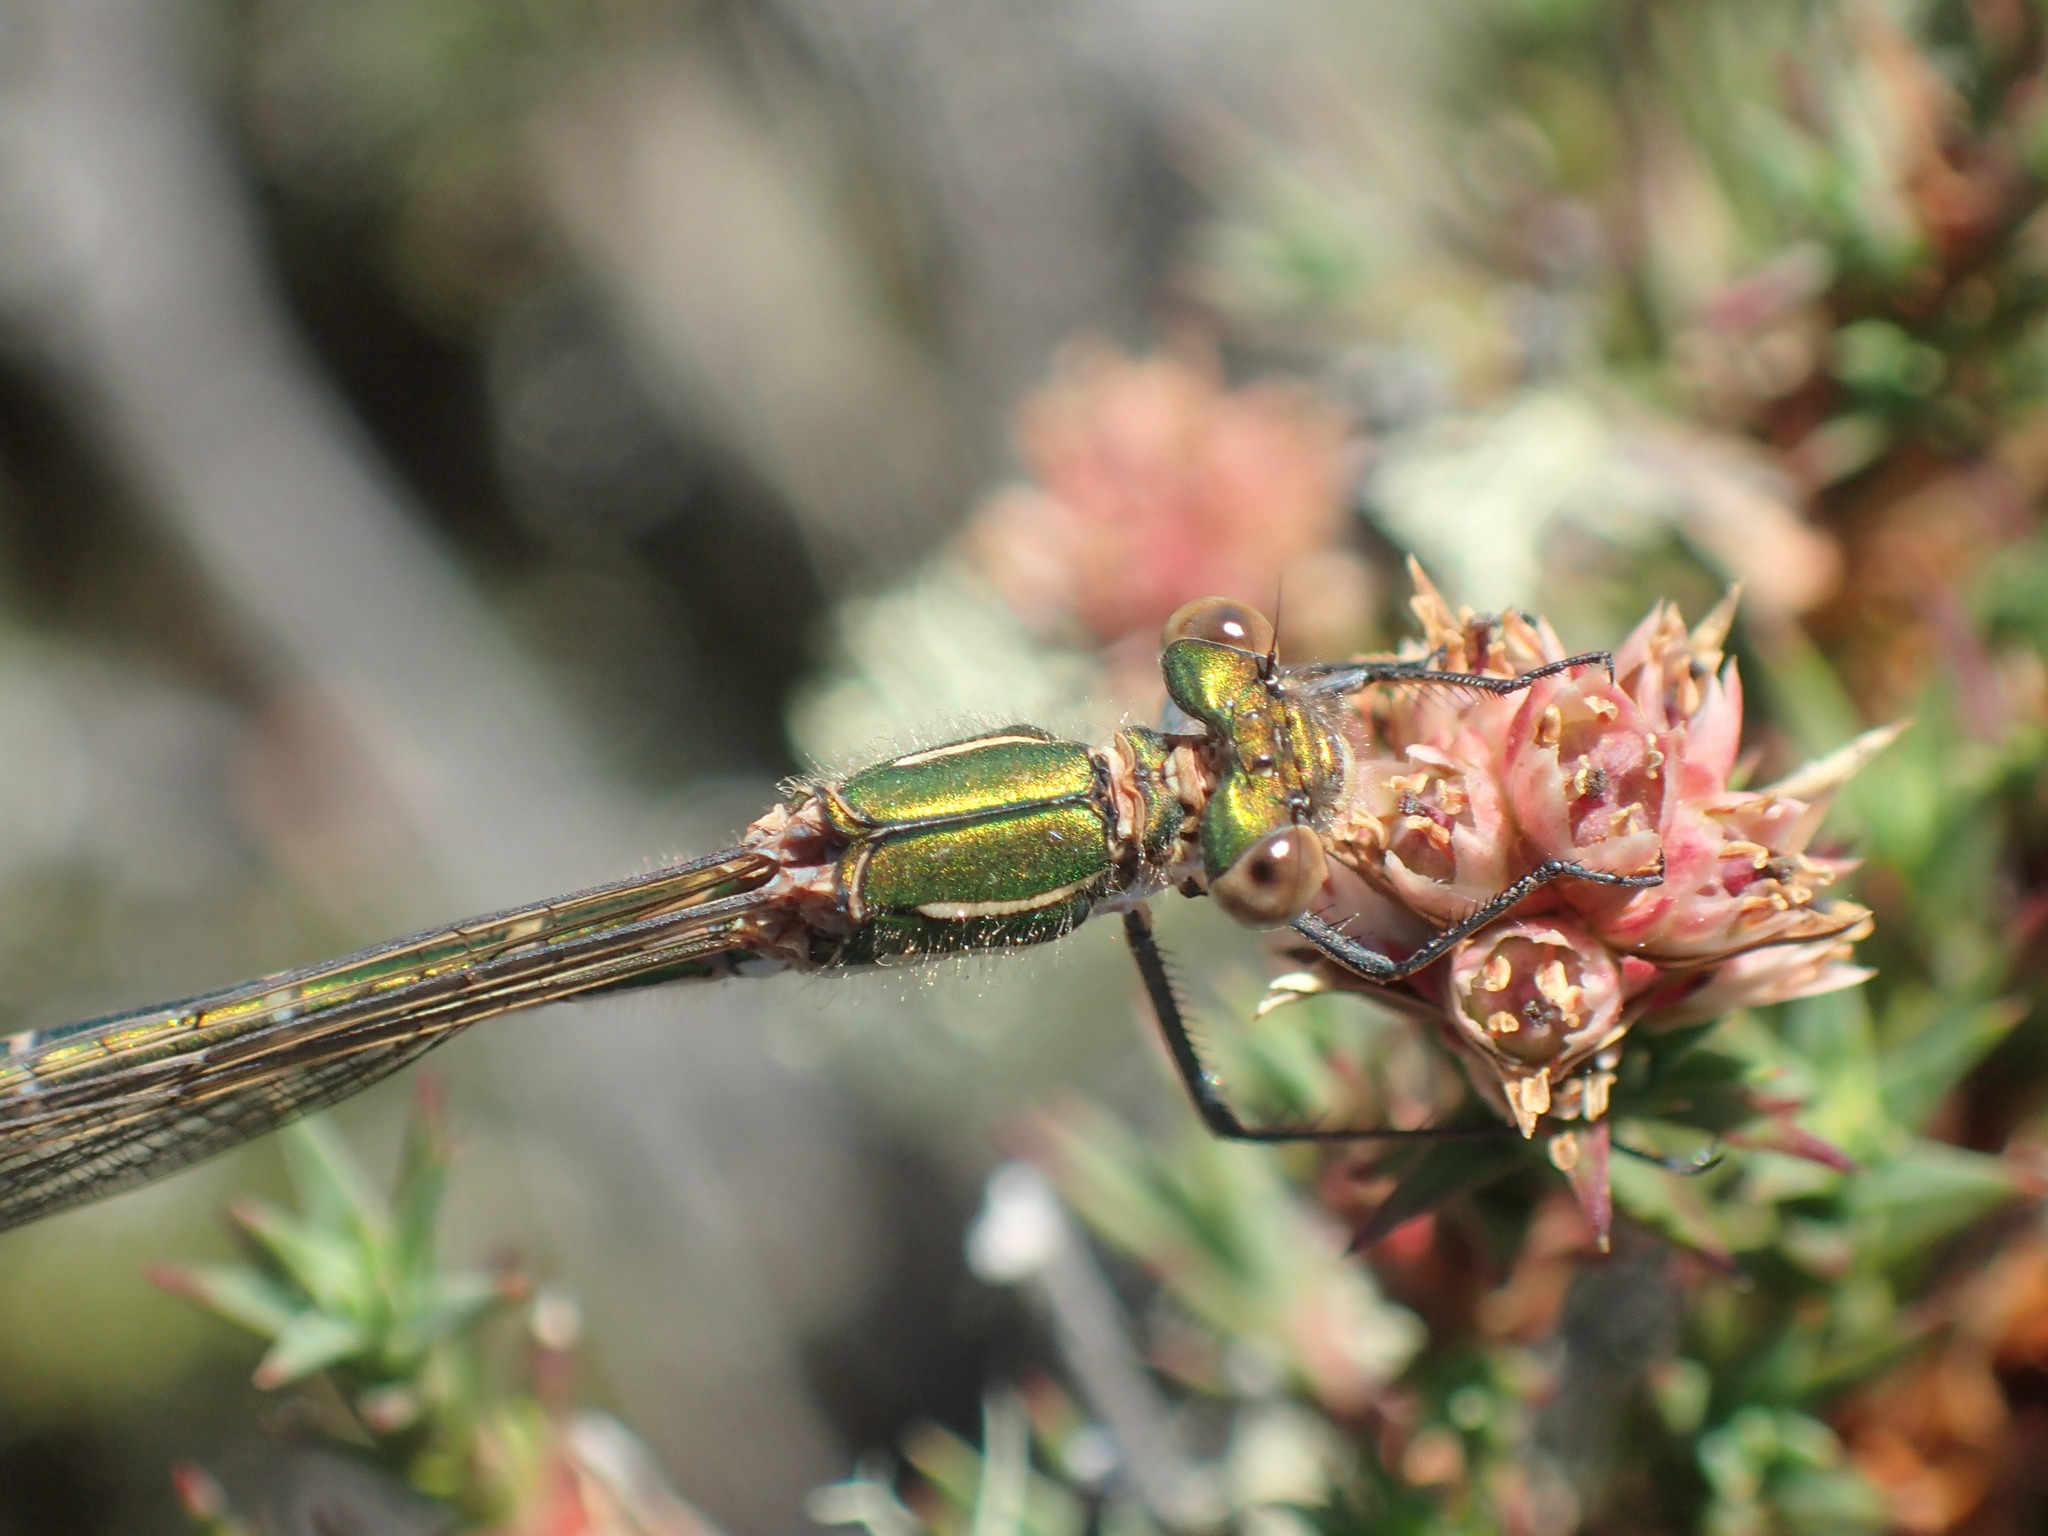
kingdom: Animalia
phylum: Arthropoda
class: Insecta
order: Odonata
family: Lestidae
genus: Austrolestes
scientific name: Austrolestes psyche
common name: Cup ringtail
